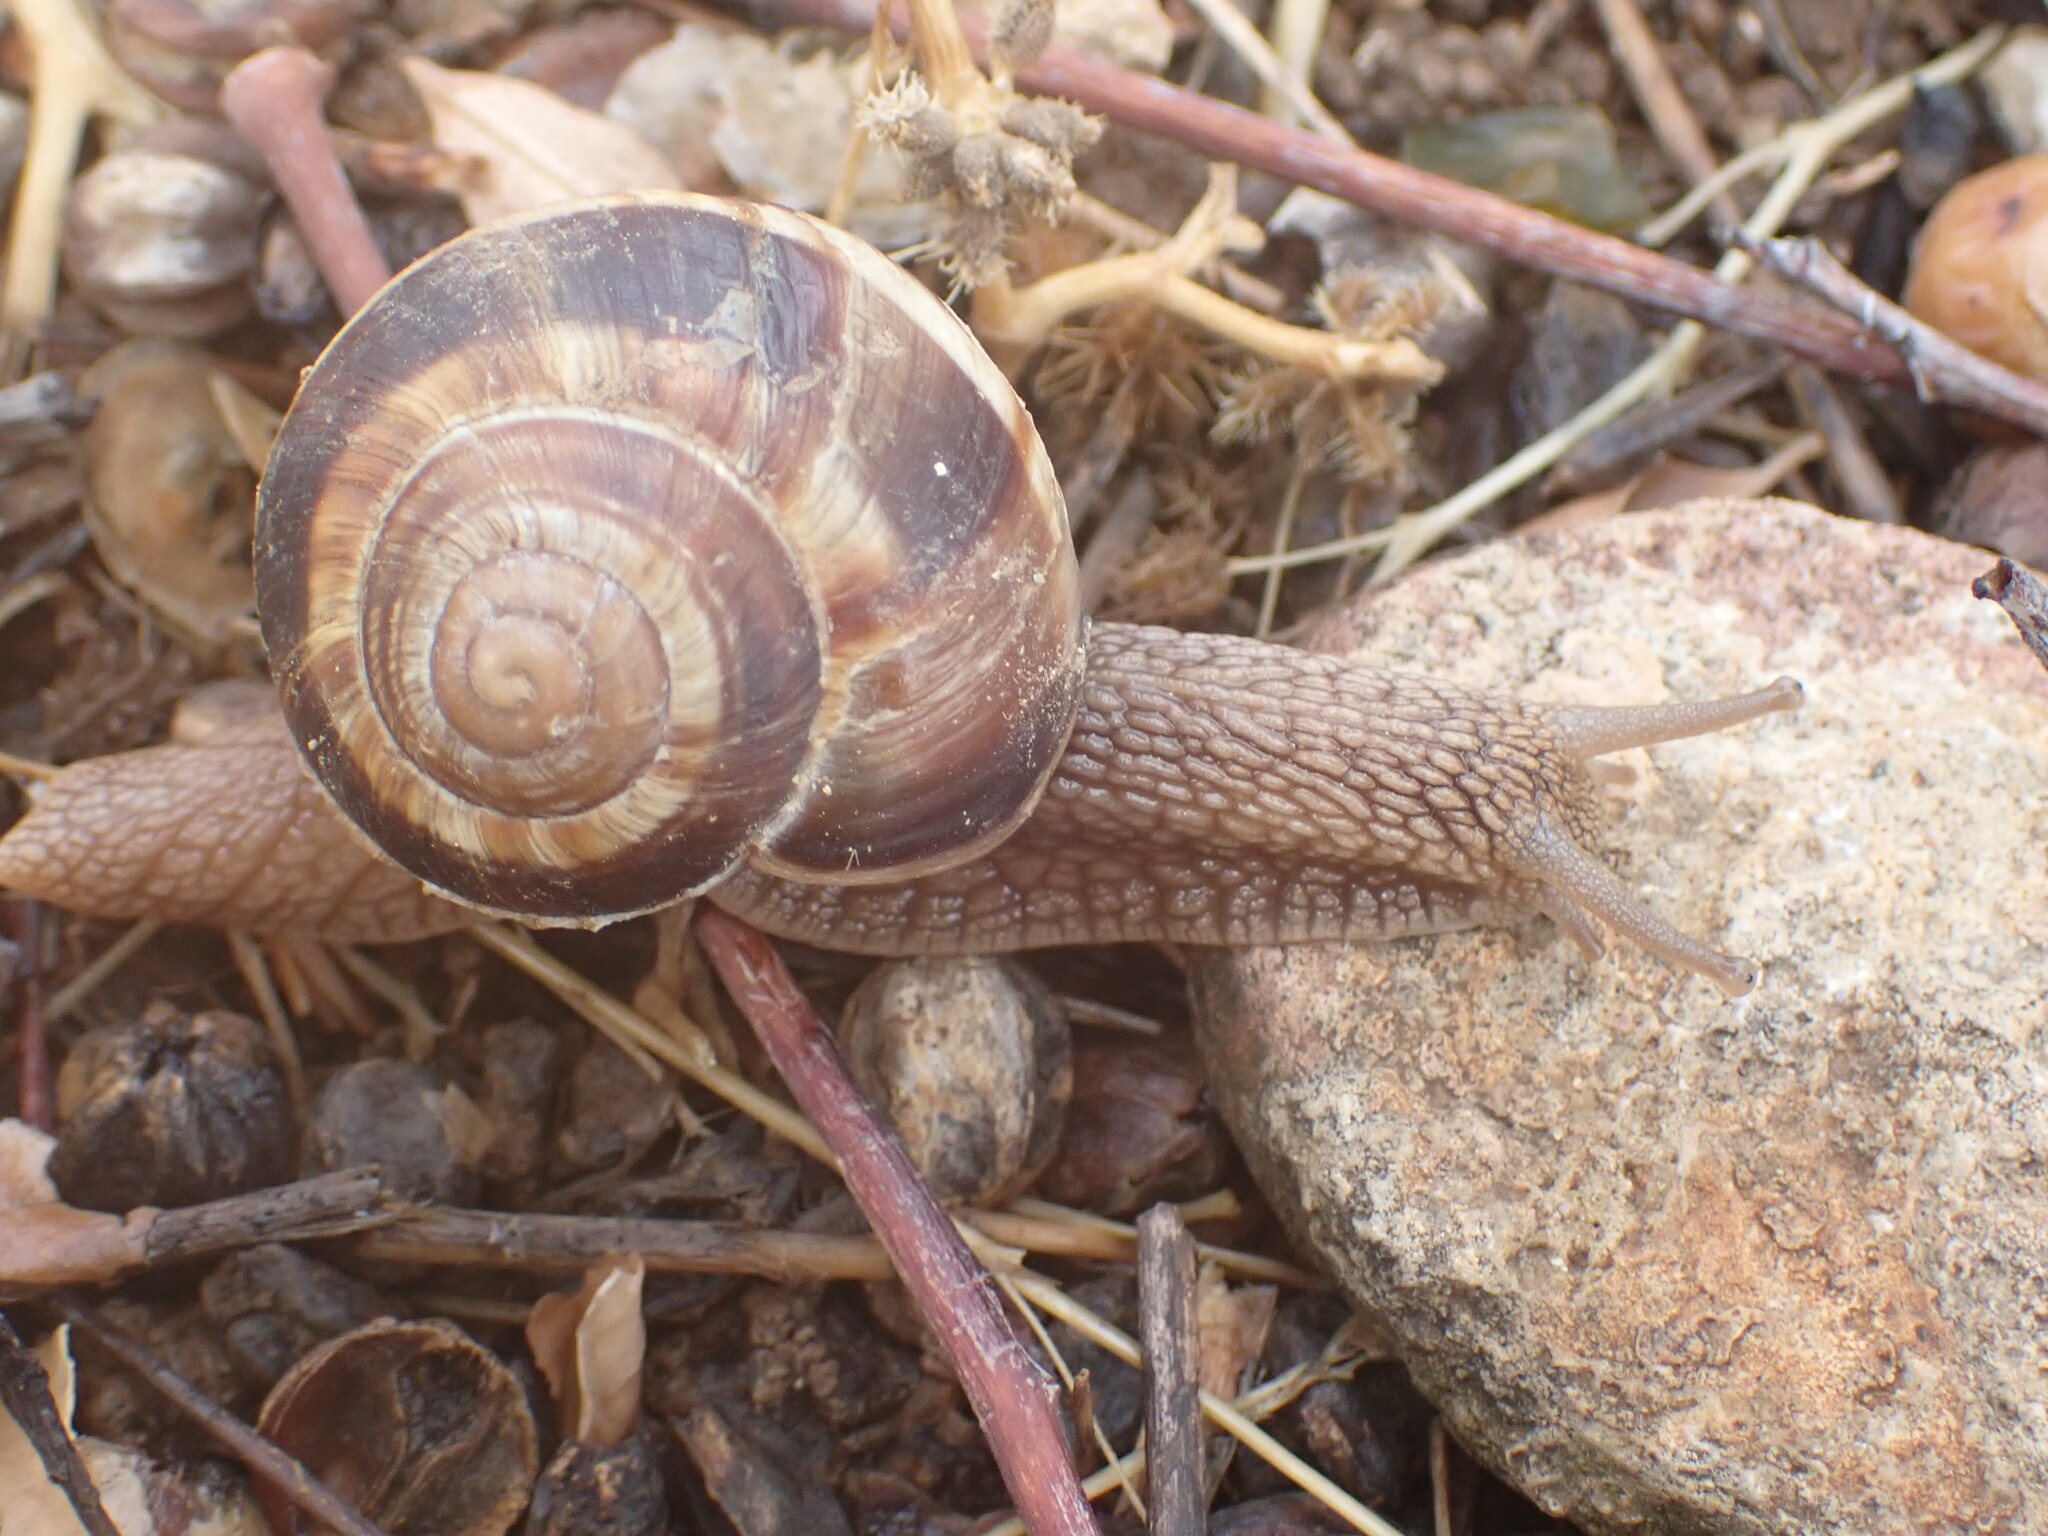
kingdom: Animalia
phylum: Mollusca
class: Gastropoda
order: Stylommatophora
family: Helicidae
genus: Helix
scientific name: Helix lucorum
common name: Turkish snail
